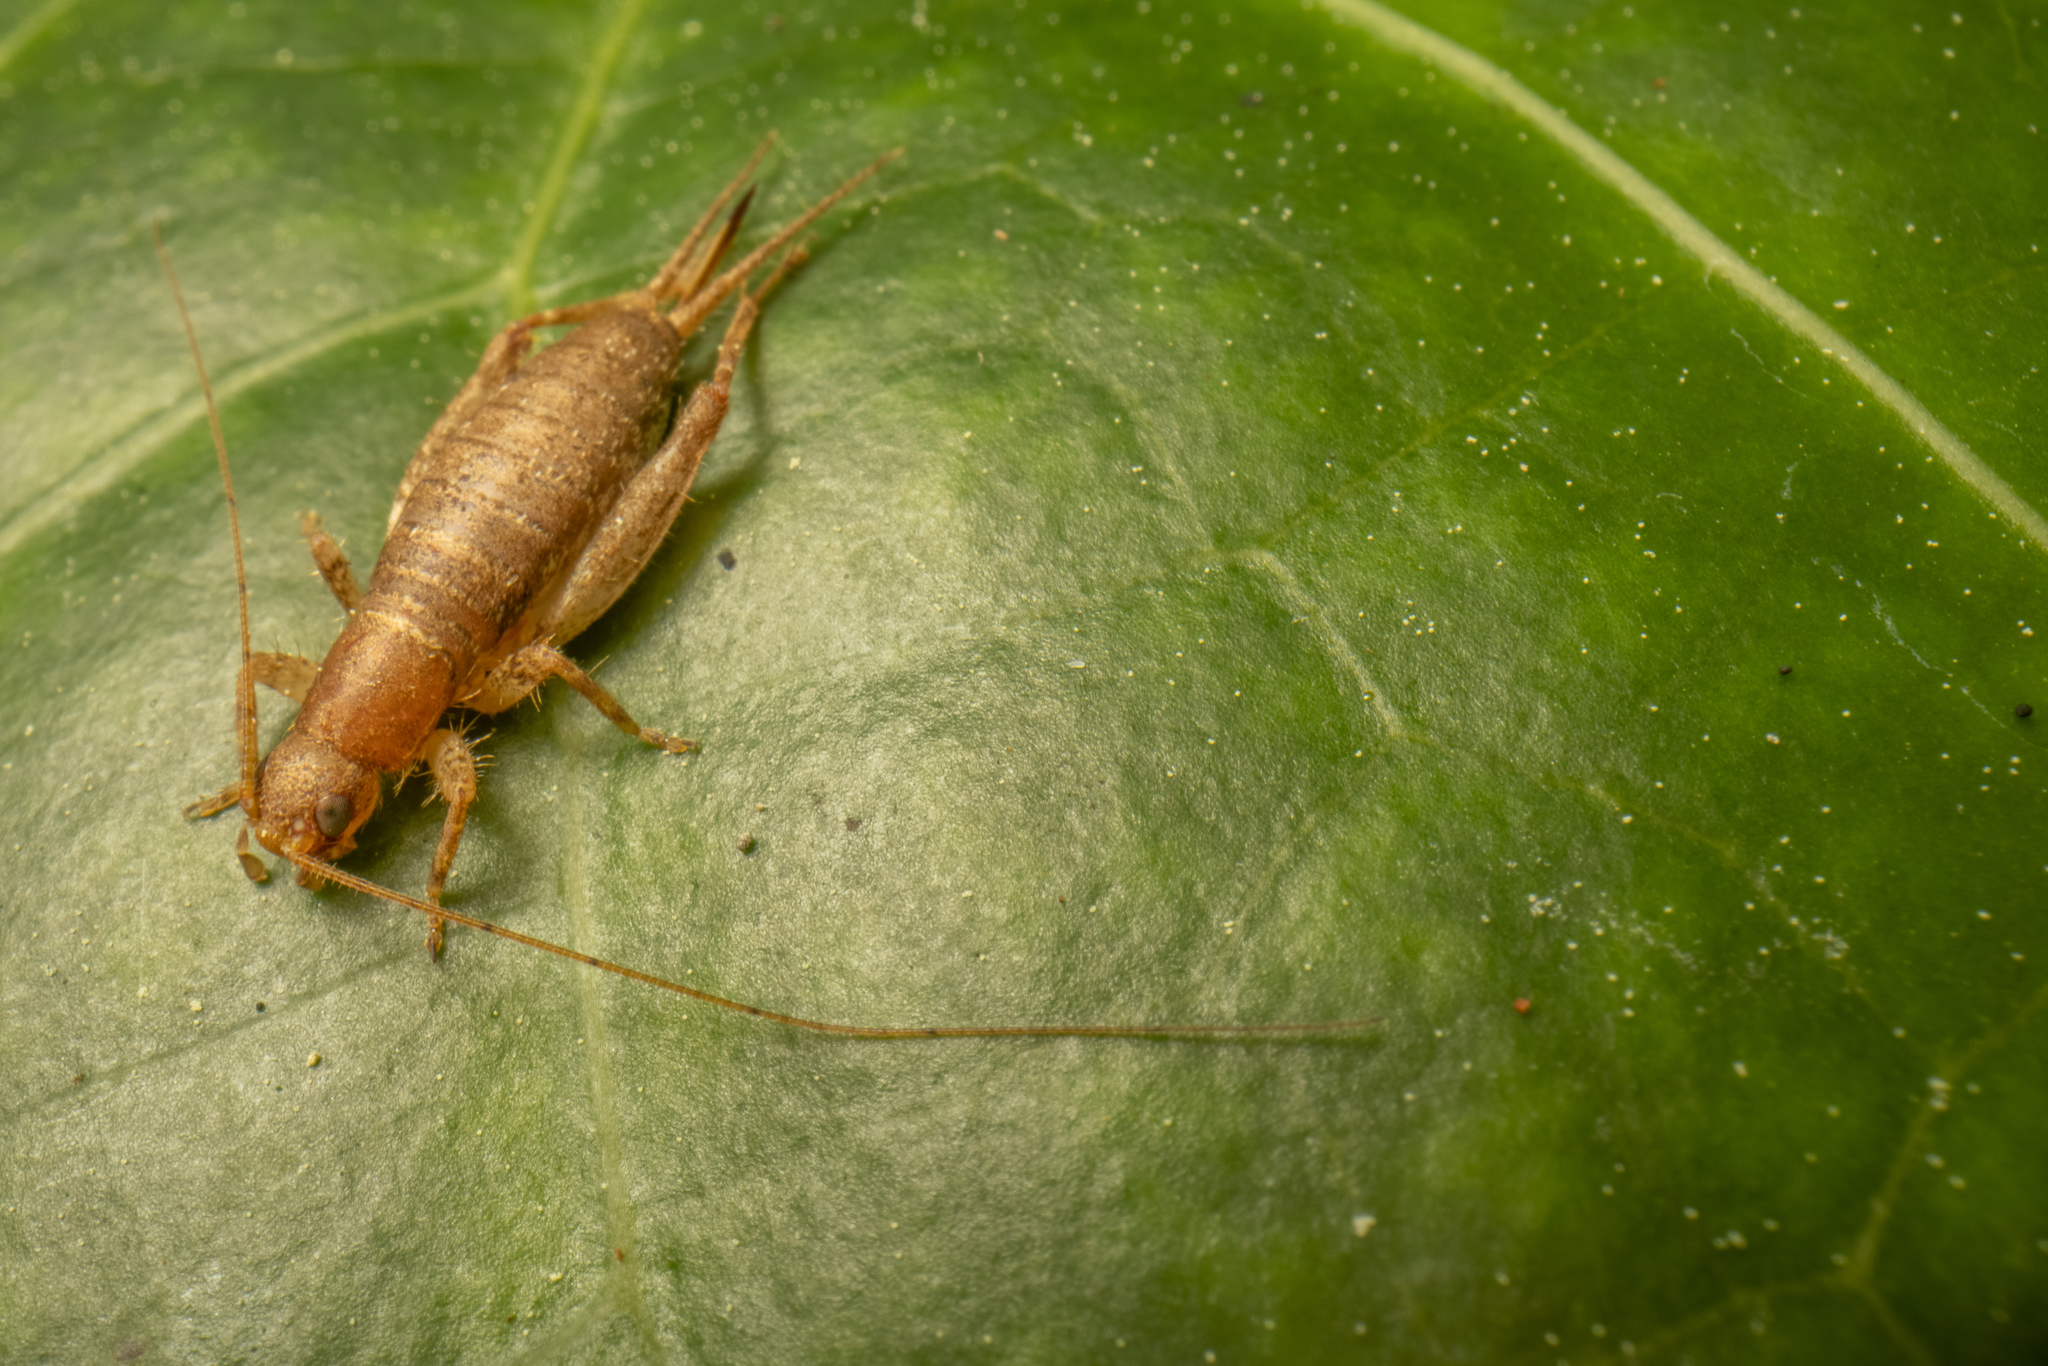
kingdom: Animalia
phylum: Arthropoda
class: Insecta
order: Orthoptera
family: Mogoplistidae
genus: Ornebius
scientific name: Ornebius aperta
